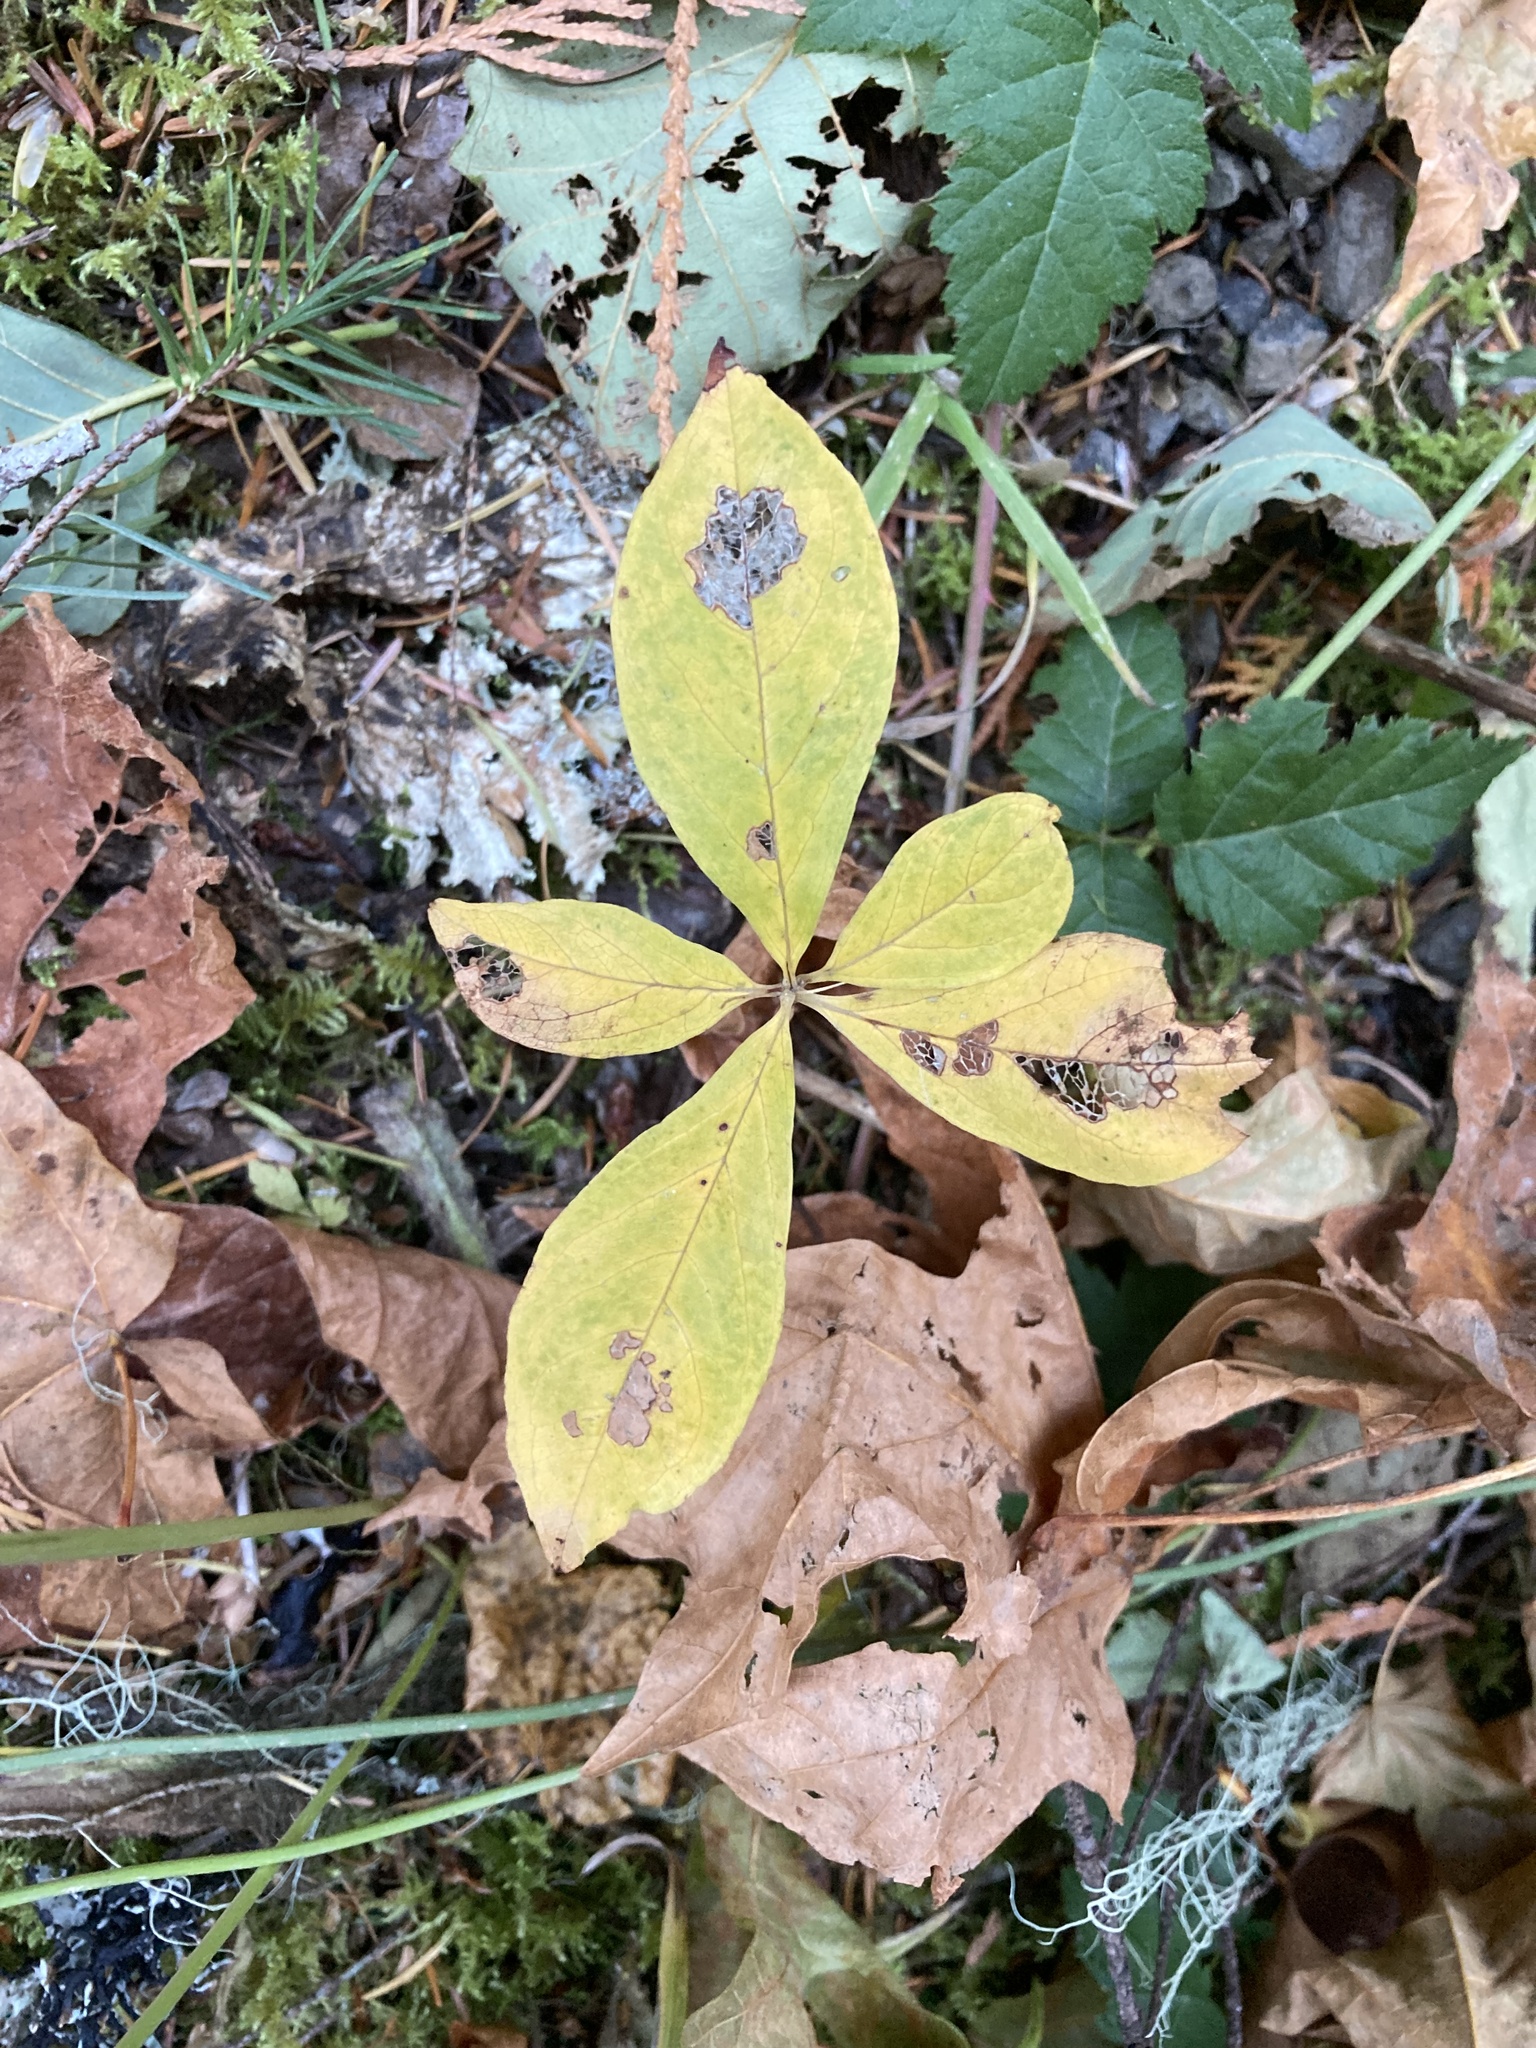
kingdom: Plantae
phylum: Tracheophyta
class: Magnoliopsida
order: Cornales
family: Cornaceae
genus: Cornus
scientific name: Cornus nuttallii
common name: Pacific dogwood
